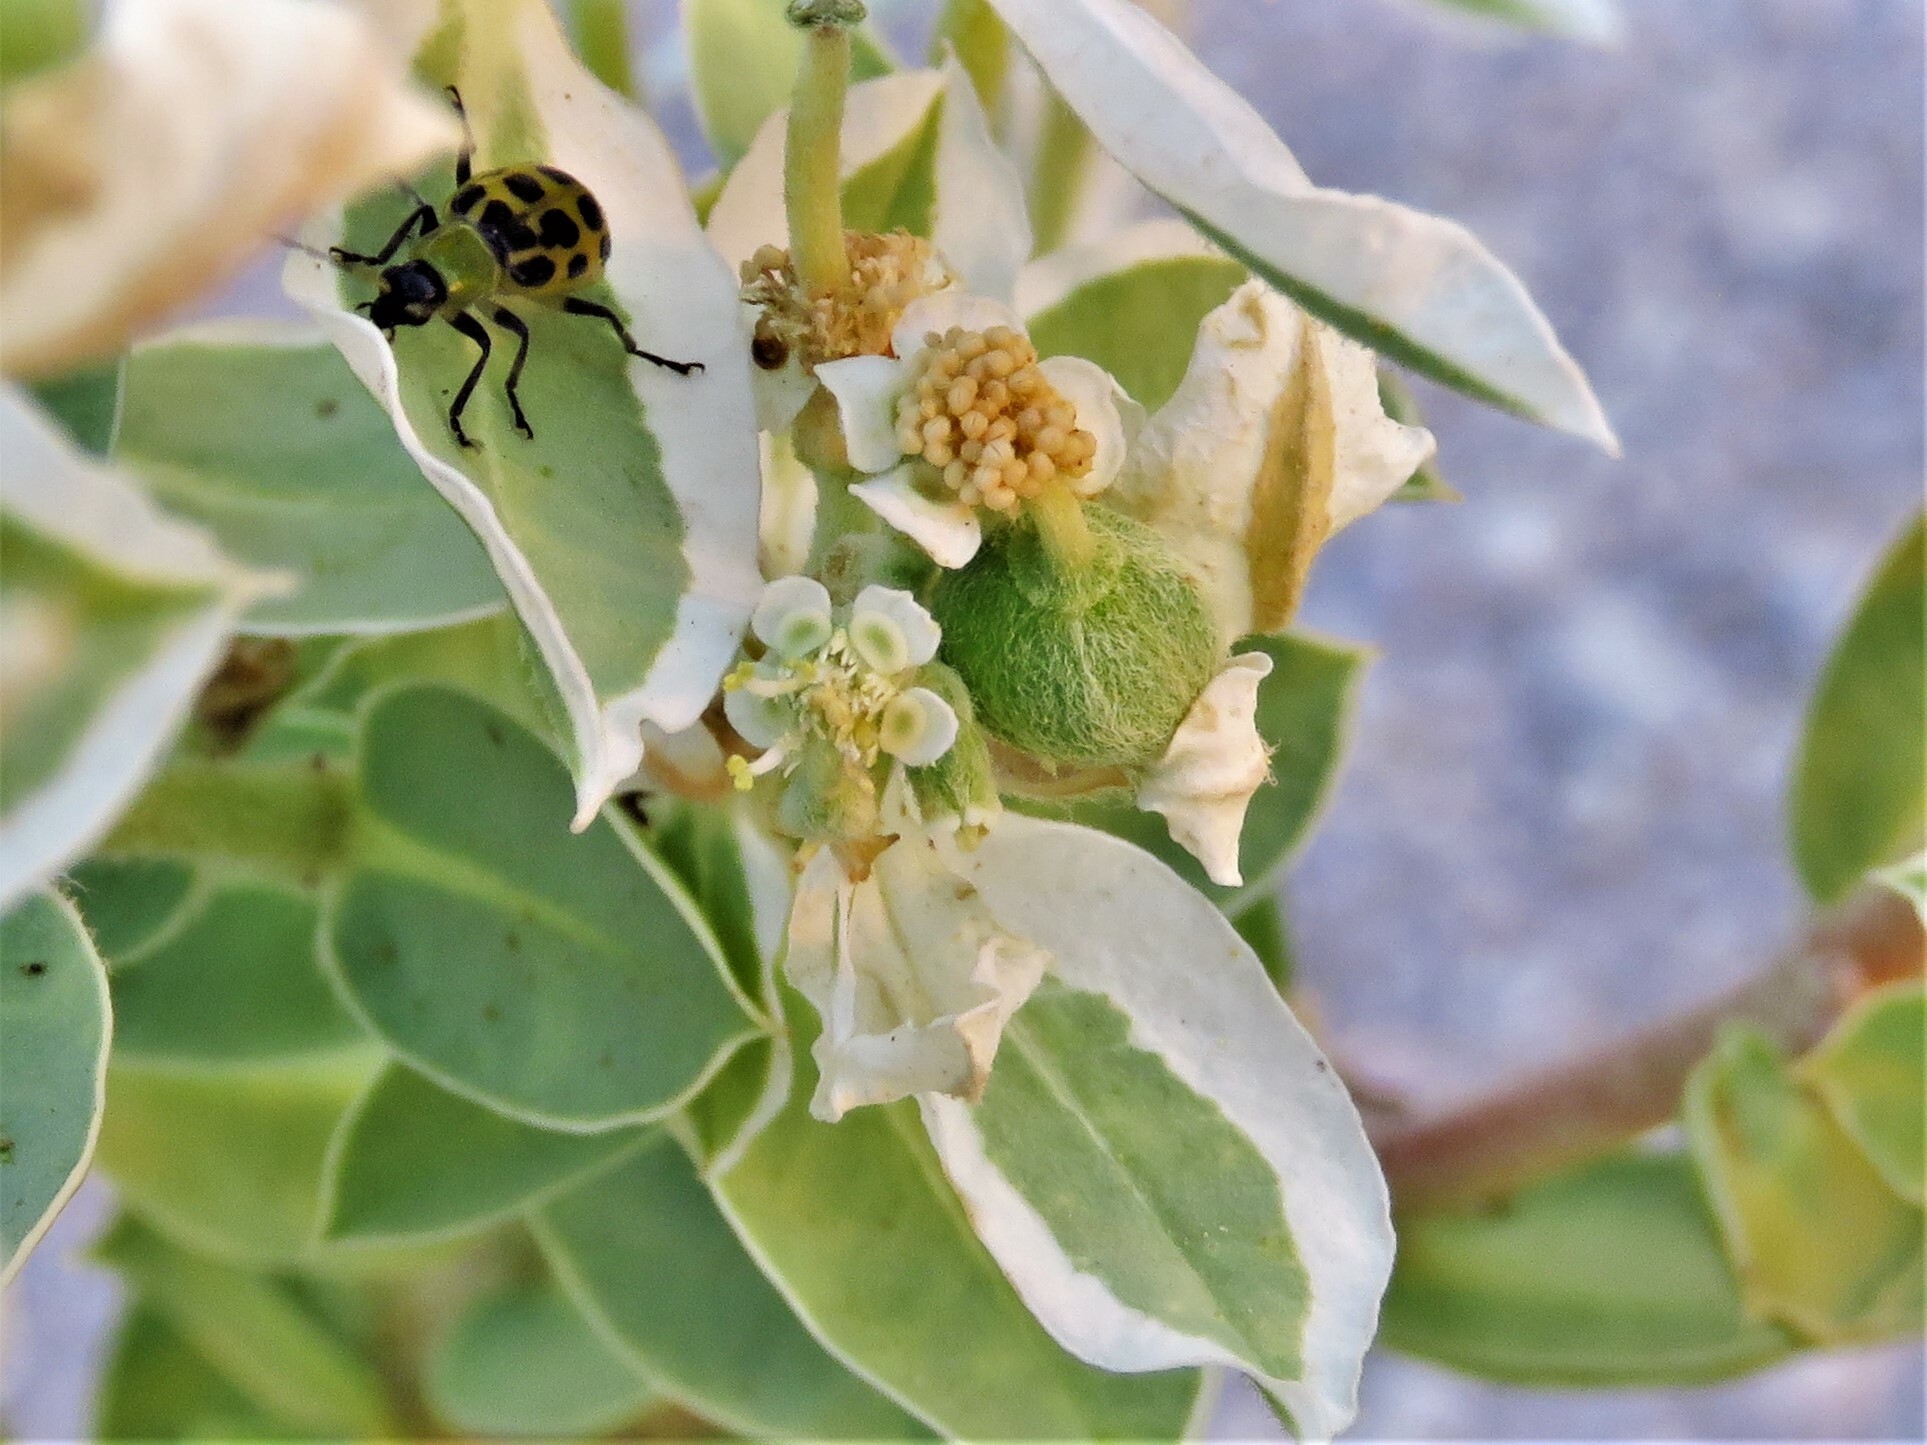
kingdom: Plantae
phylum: Tracheophyta
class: Magnoliopsida
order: Malpighiales
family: Euphorbiaceae
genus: Euphorbia
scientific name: Euphorbia marginata
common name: Ghostweed
